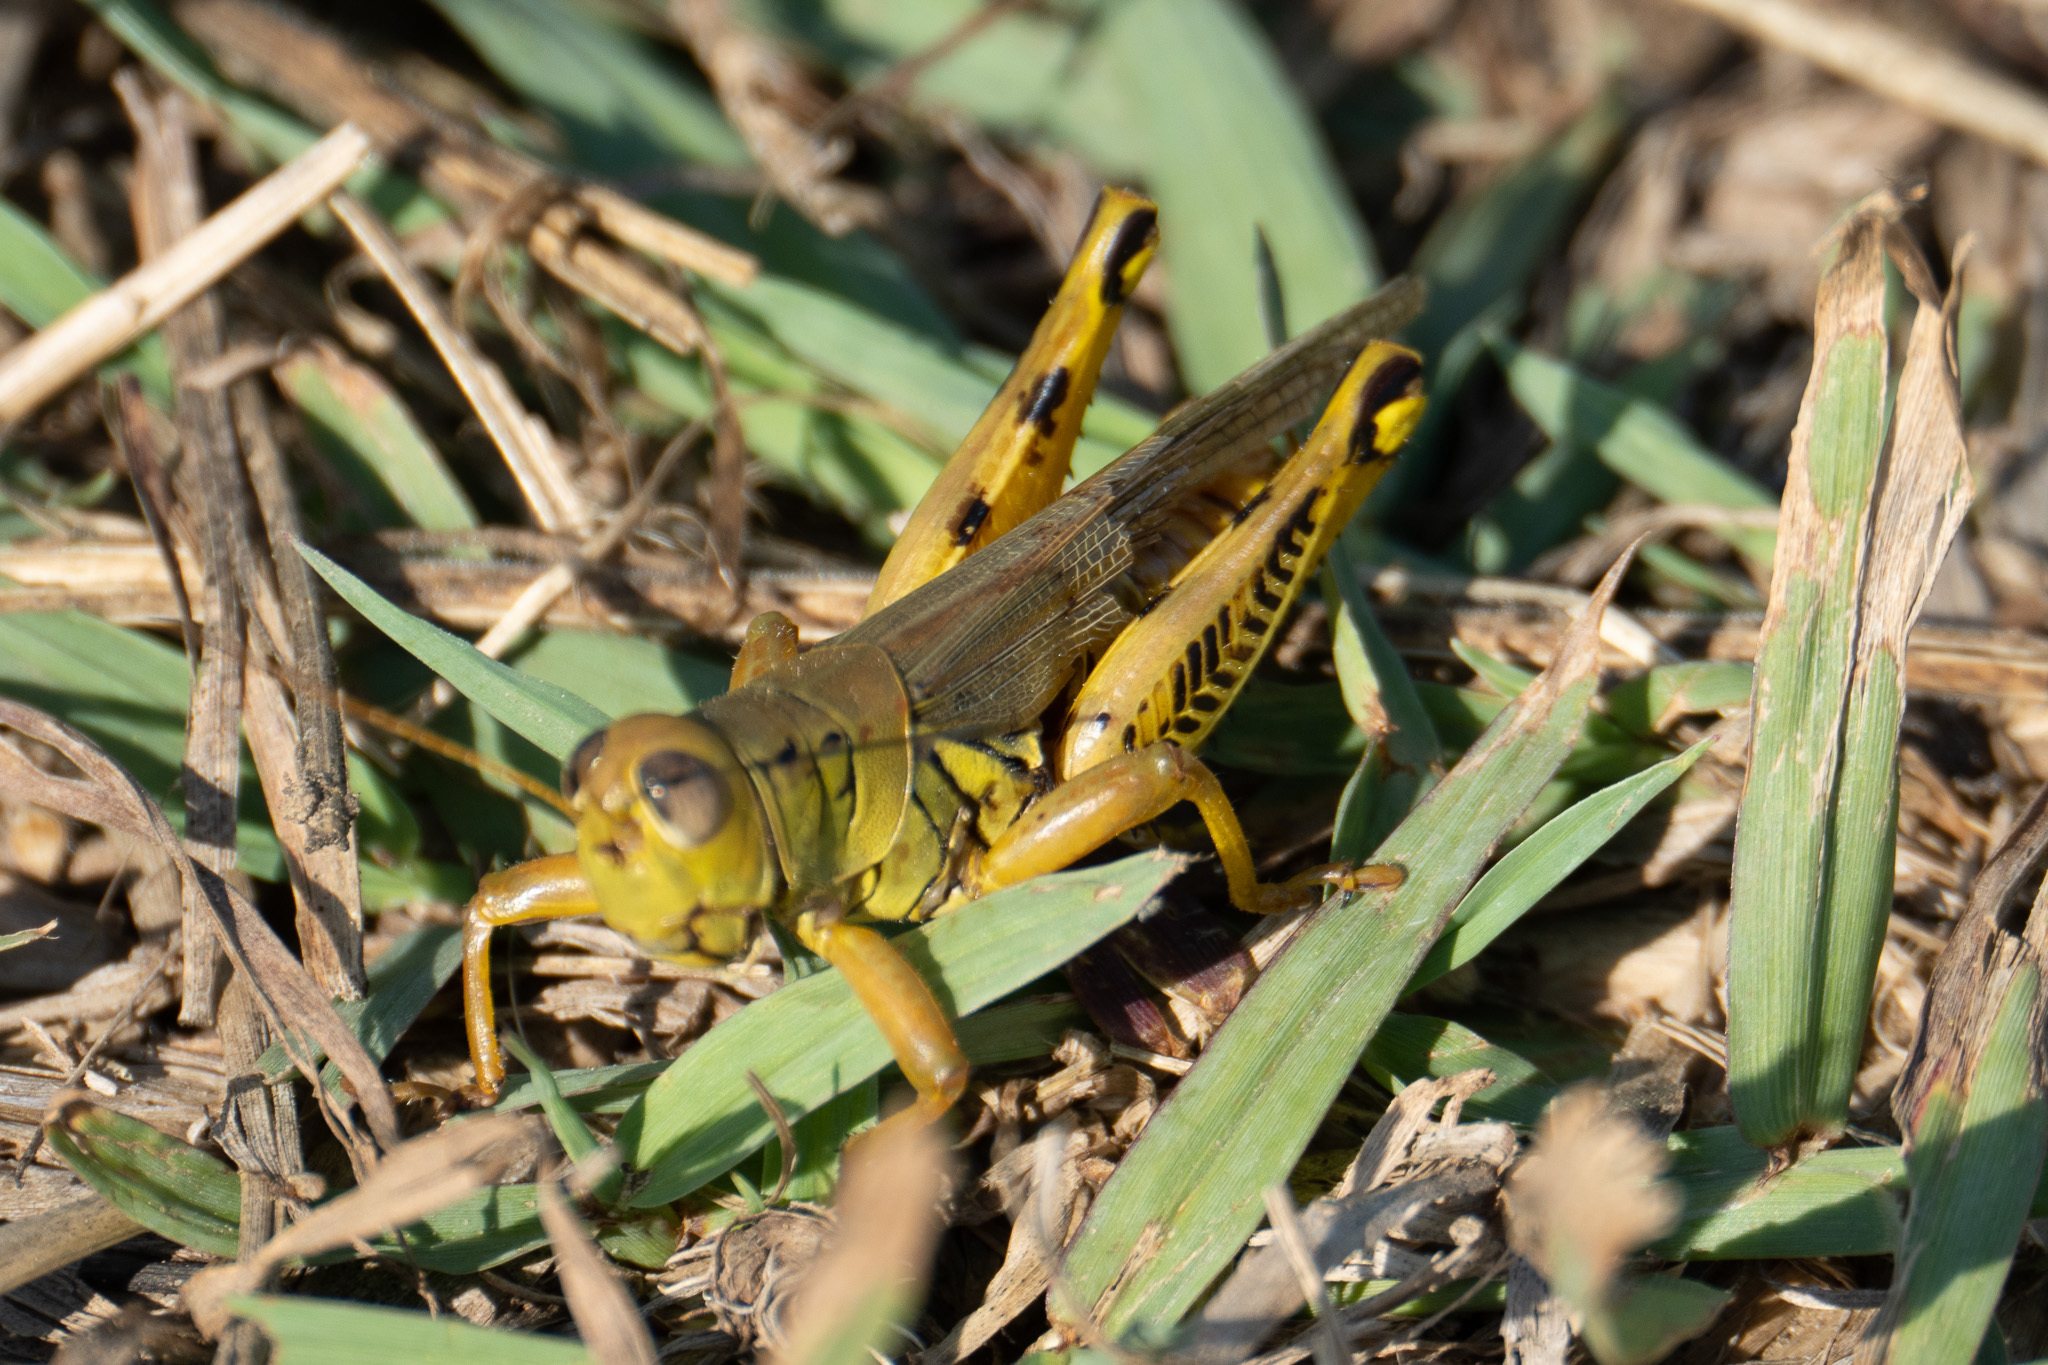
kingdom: Animalia
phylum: Arthropoda
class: Insecta
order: Orthoptera
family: Acrididae
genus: Melanoplus
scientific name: Melanoplus differentialis
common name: Differential grasshopper
